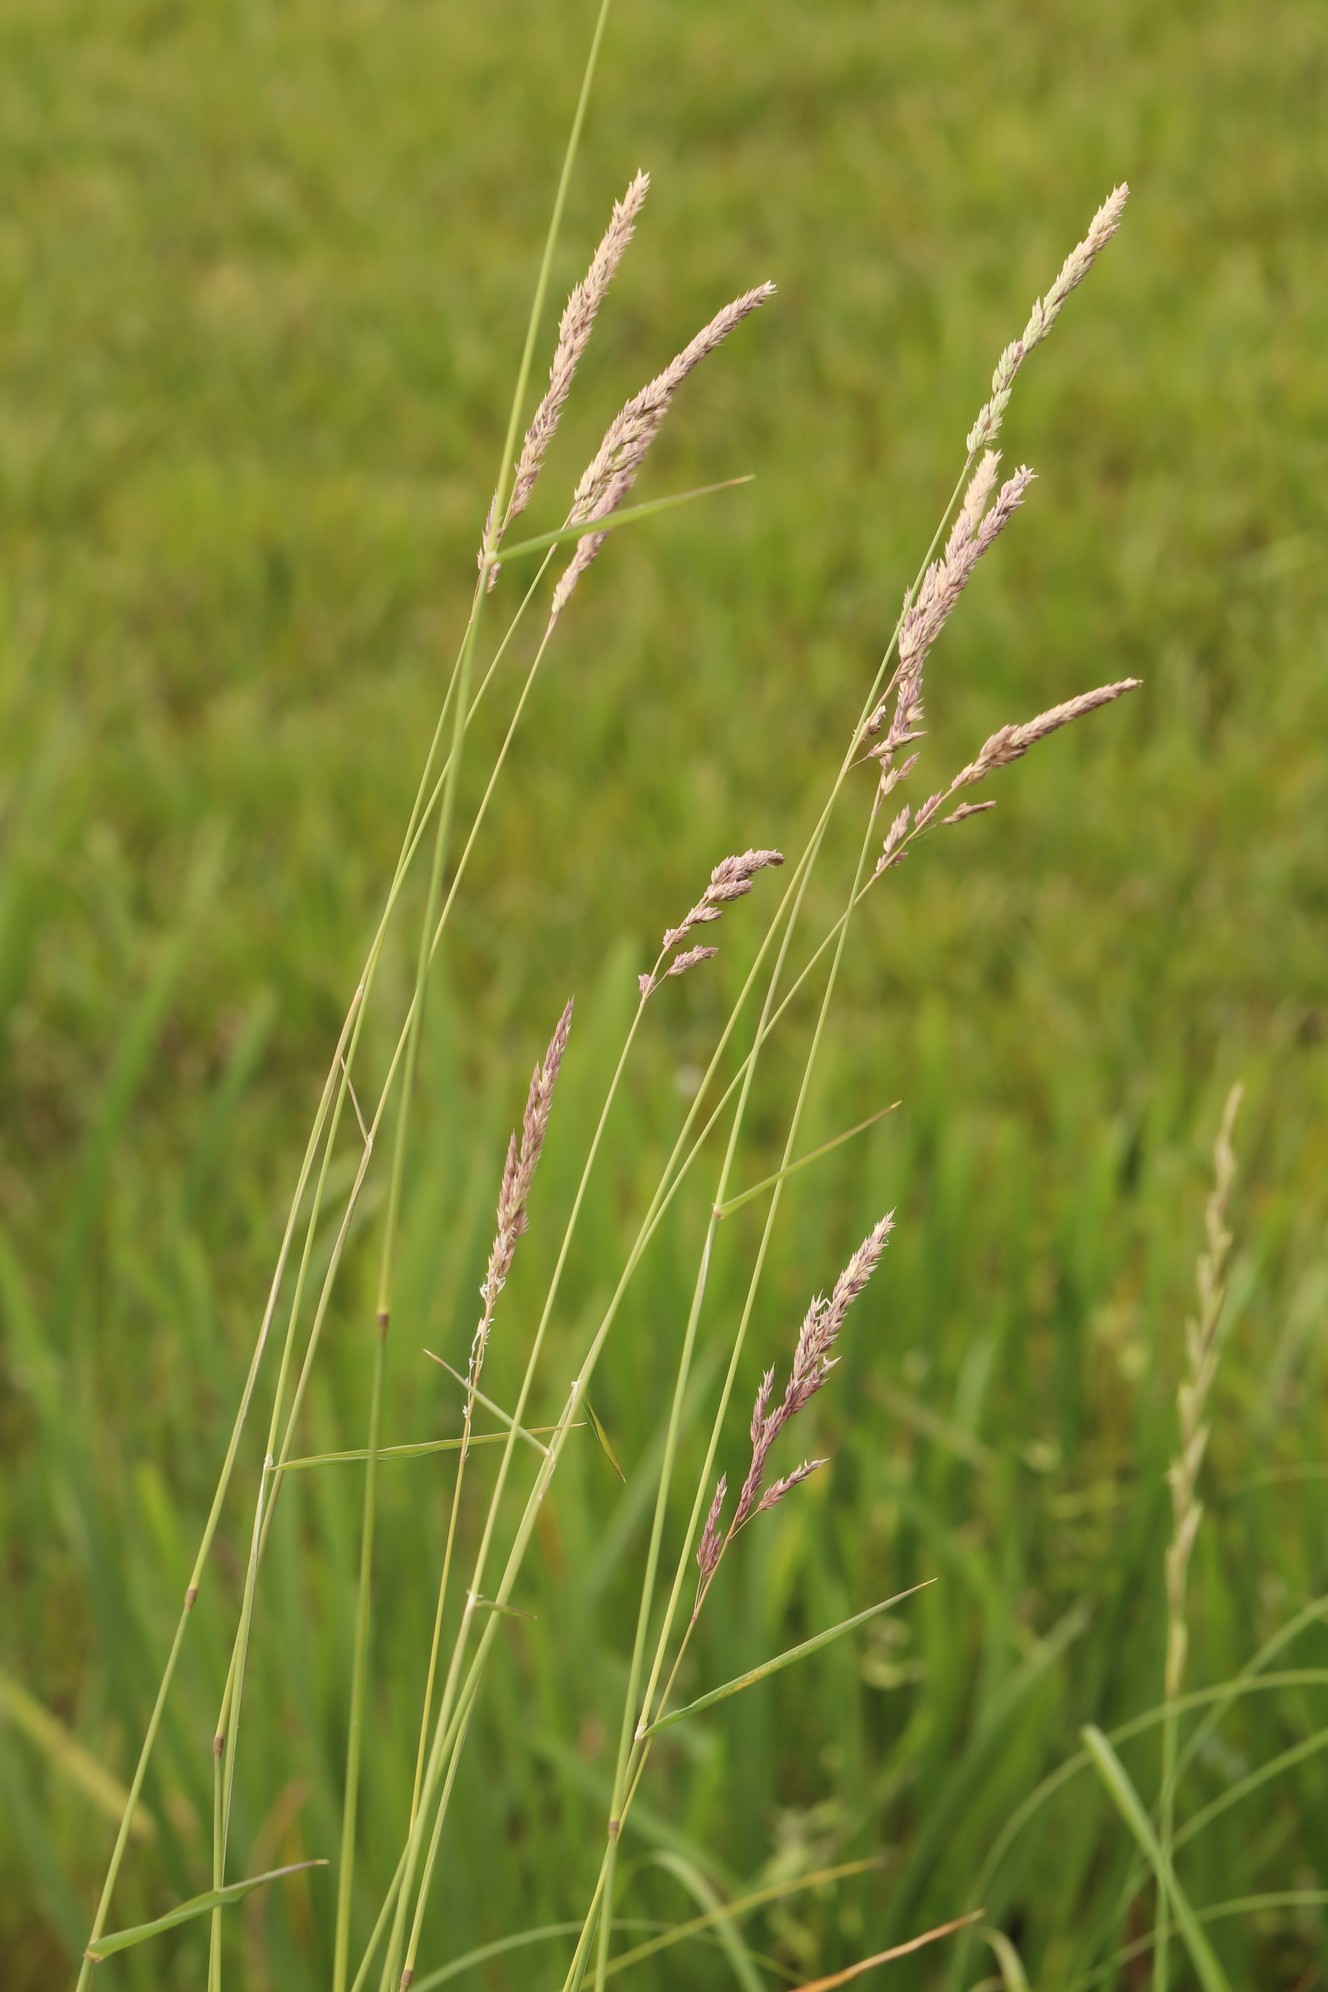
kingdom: Plantae
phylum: Tracheophyta
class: Liliopsida
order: Poales
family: Poaceae
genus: Phalaris
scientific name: Phalaris arundinacea
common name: Reed canary-grass
